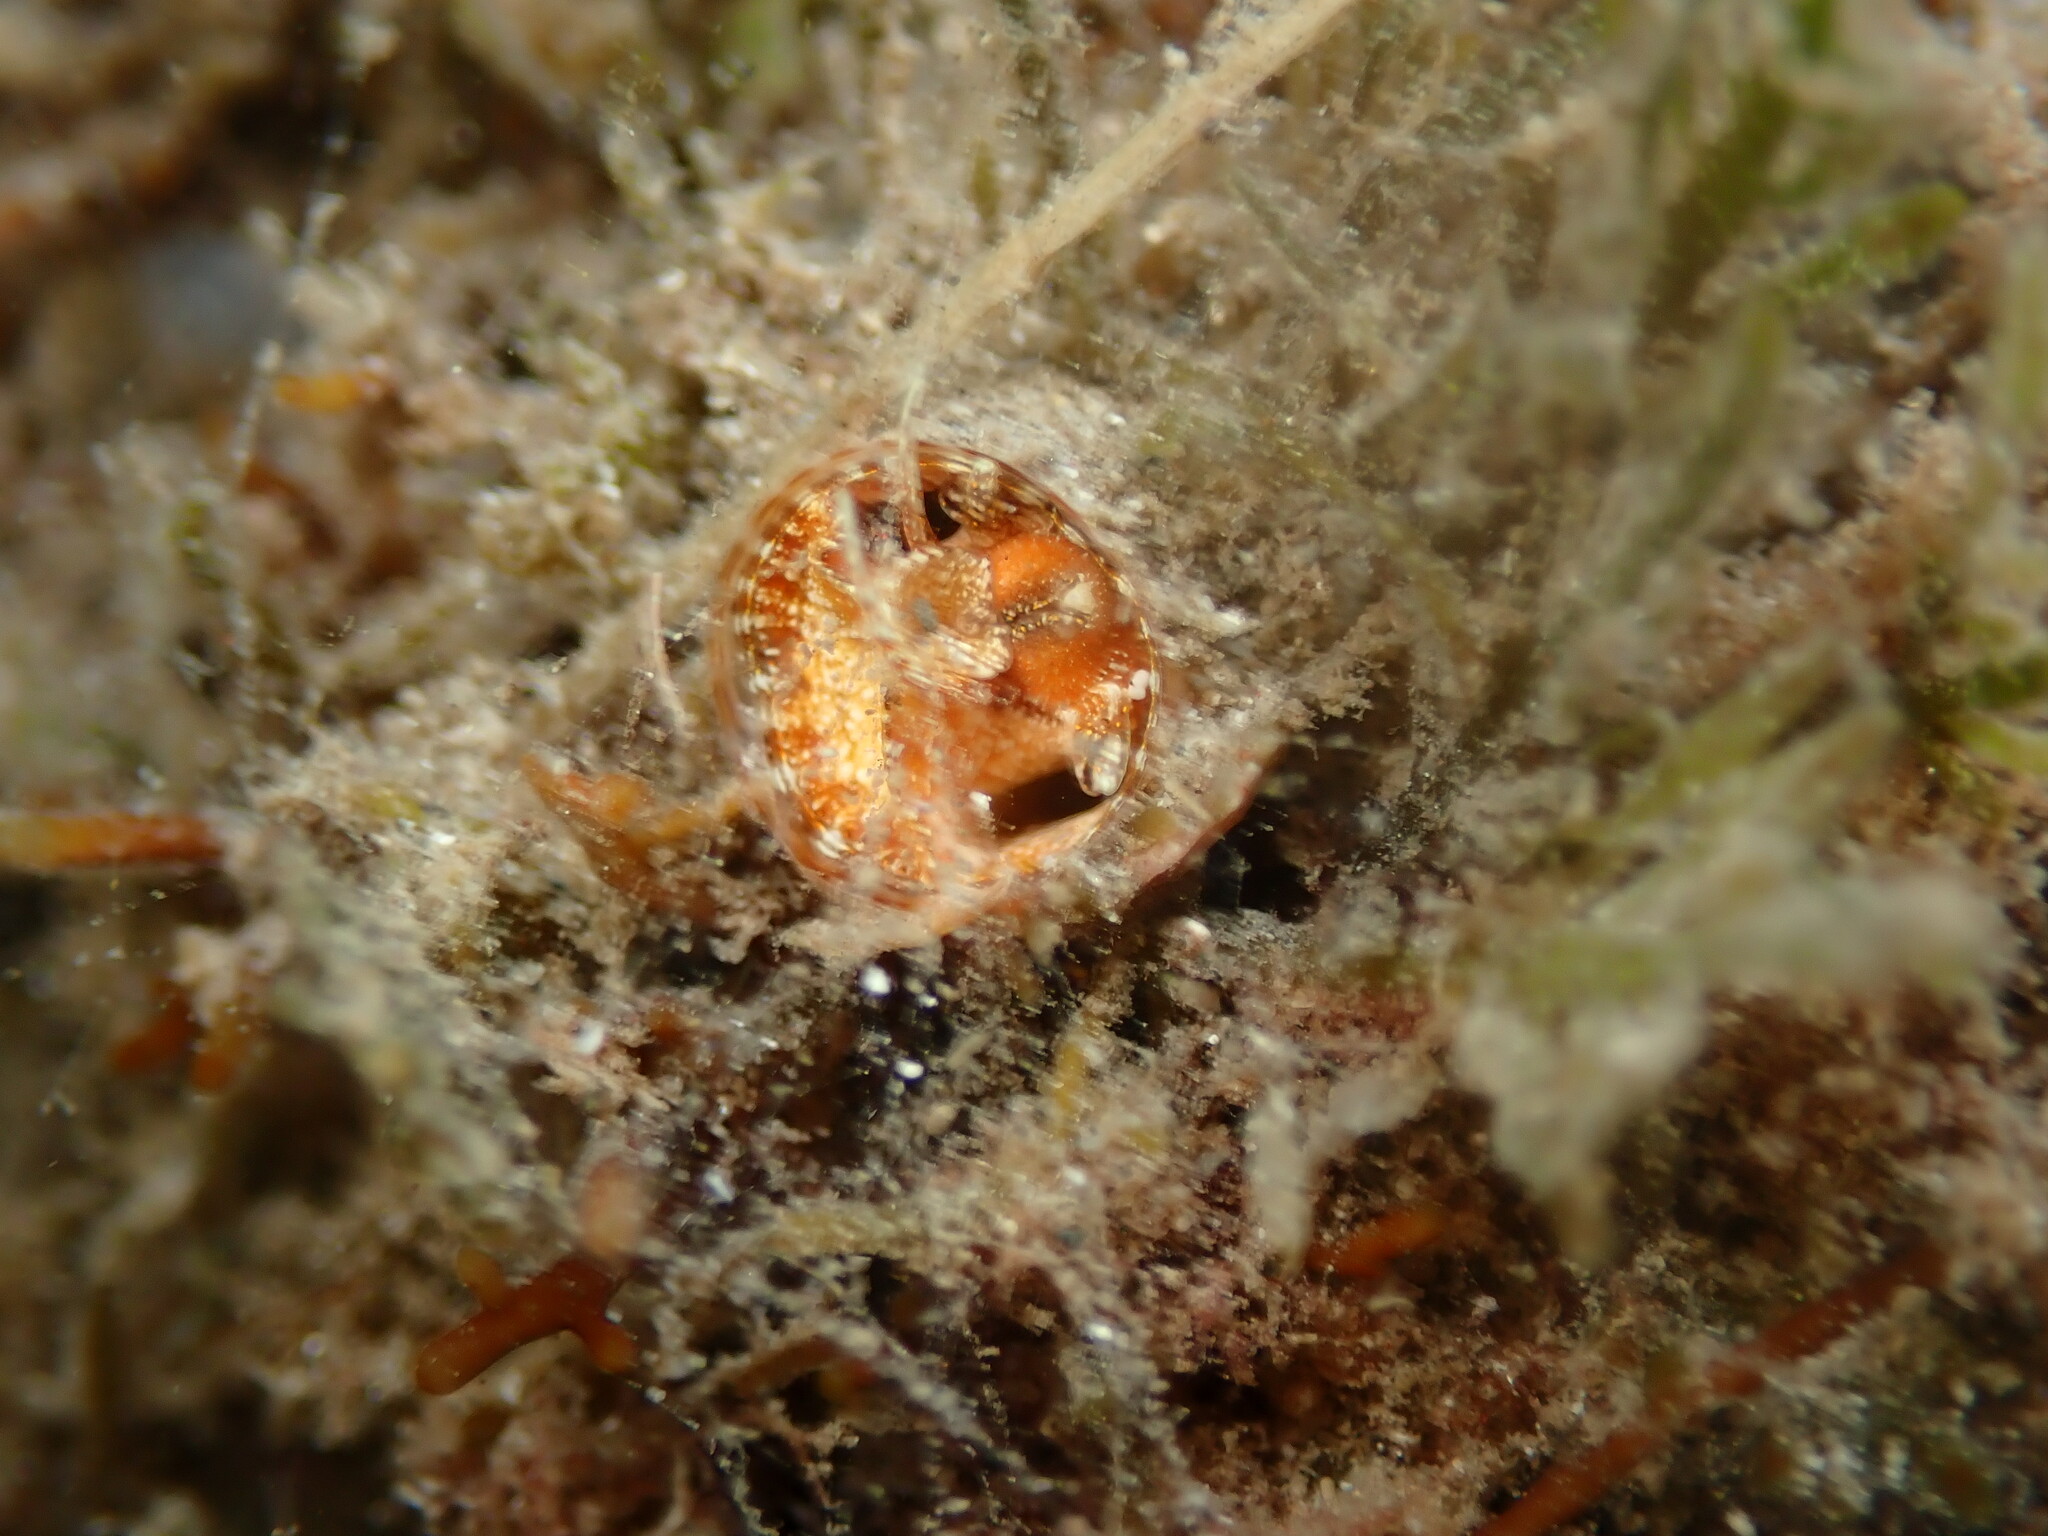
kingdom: Animalia
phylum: Mollusca
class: Gastropoda
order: Littorinimorpha
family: Vermetidae
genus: Thylacodes
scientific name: Thylacodes variabilis
